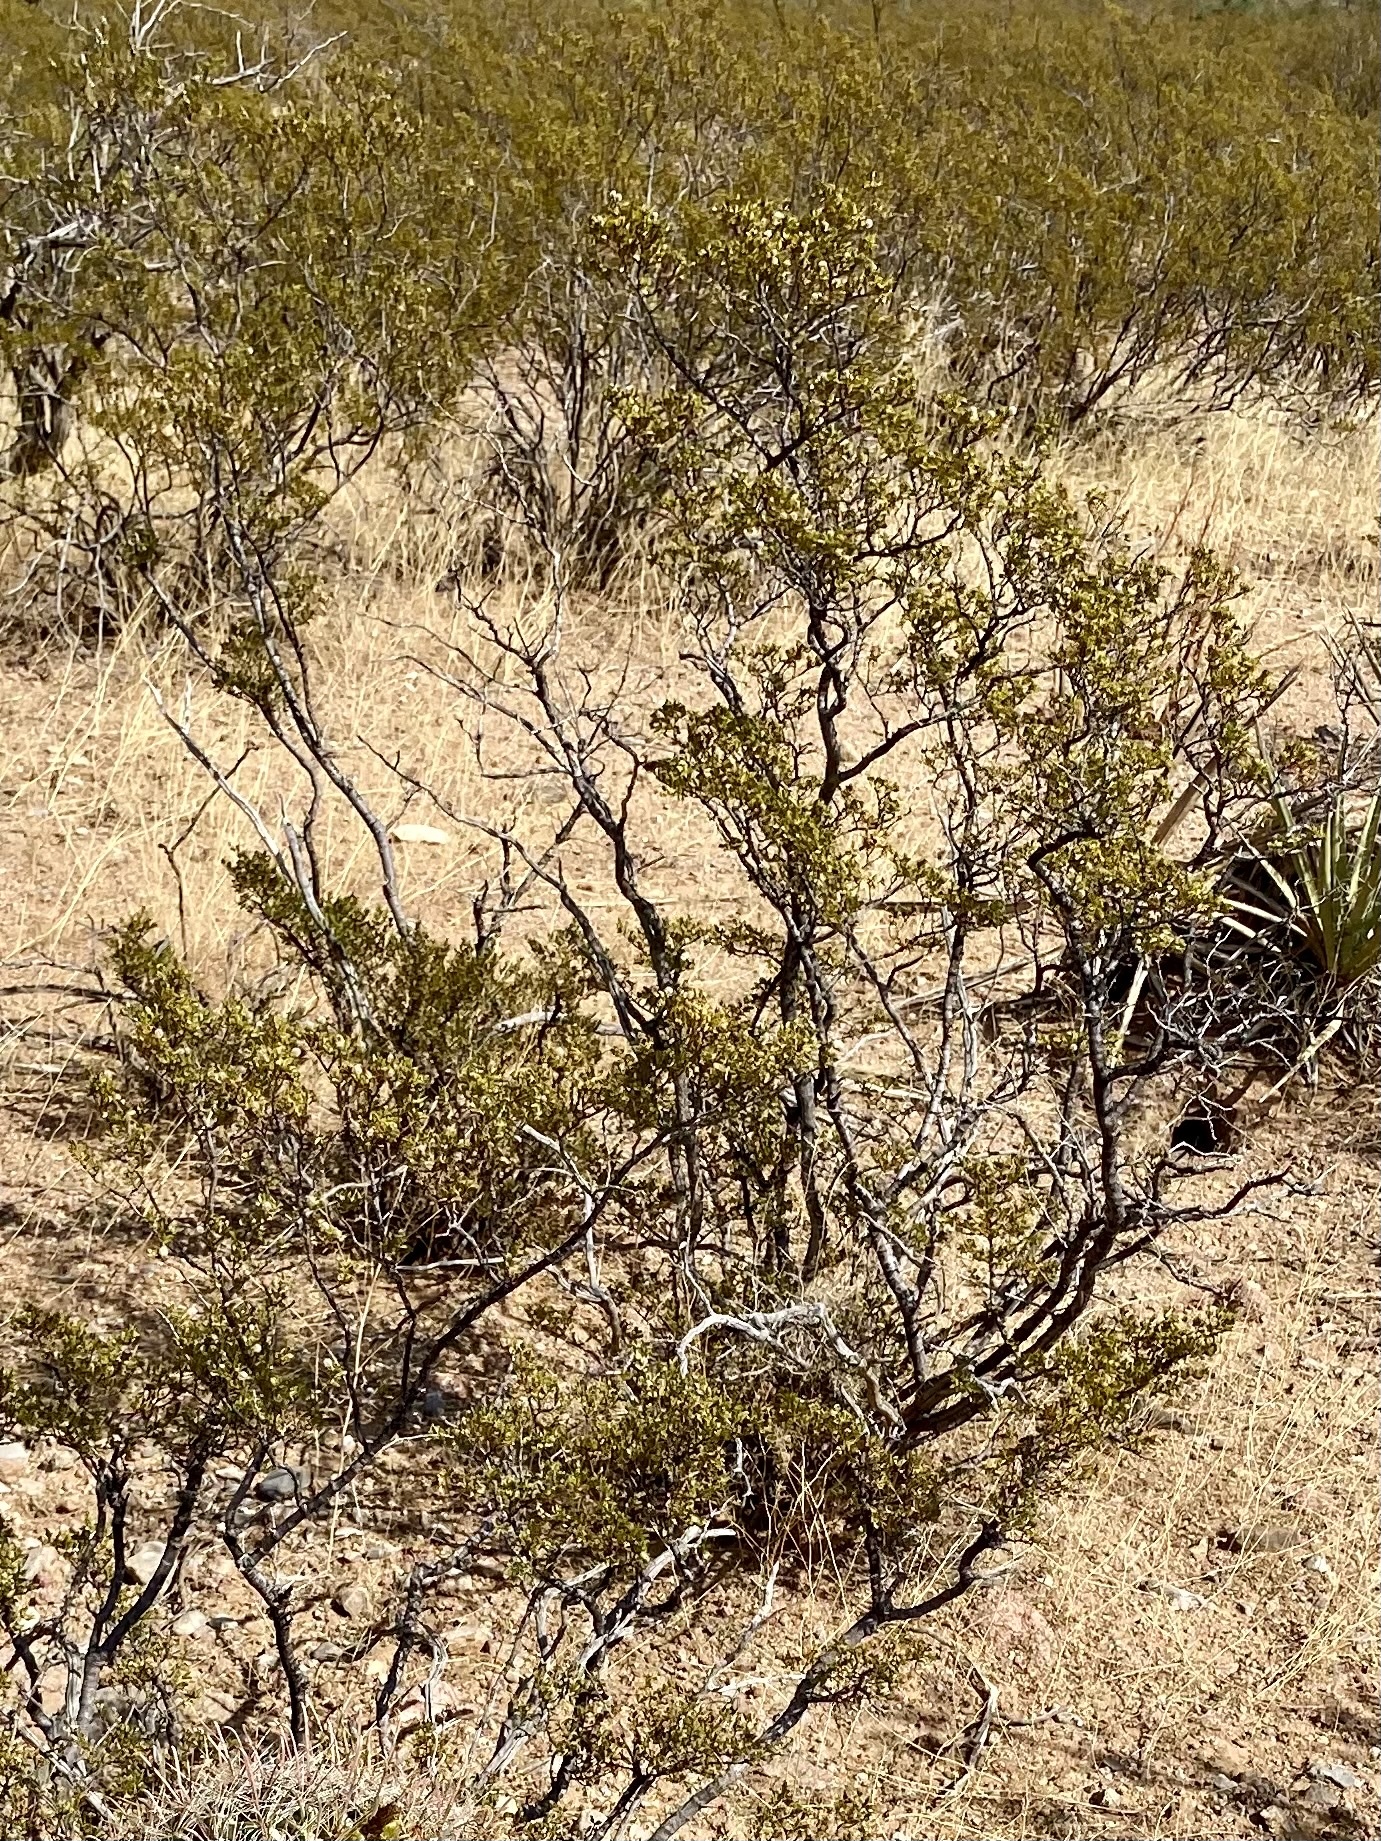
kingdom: Plantae
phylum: Tracheophyta
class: Magnoliopsida
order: Zygophyllales
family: Zygophyllaceae
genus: Larrea
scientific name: Larrea tridentata
